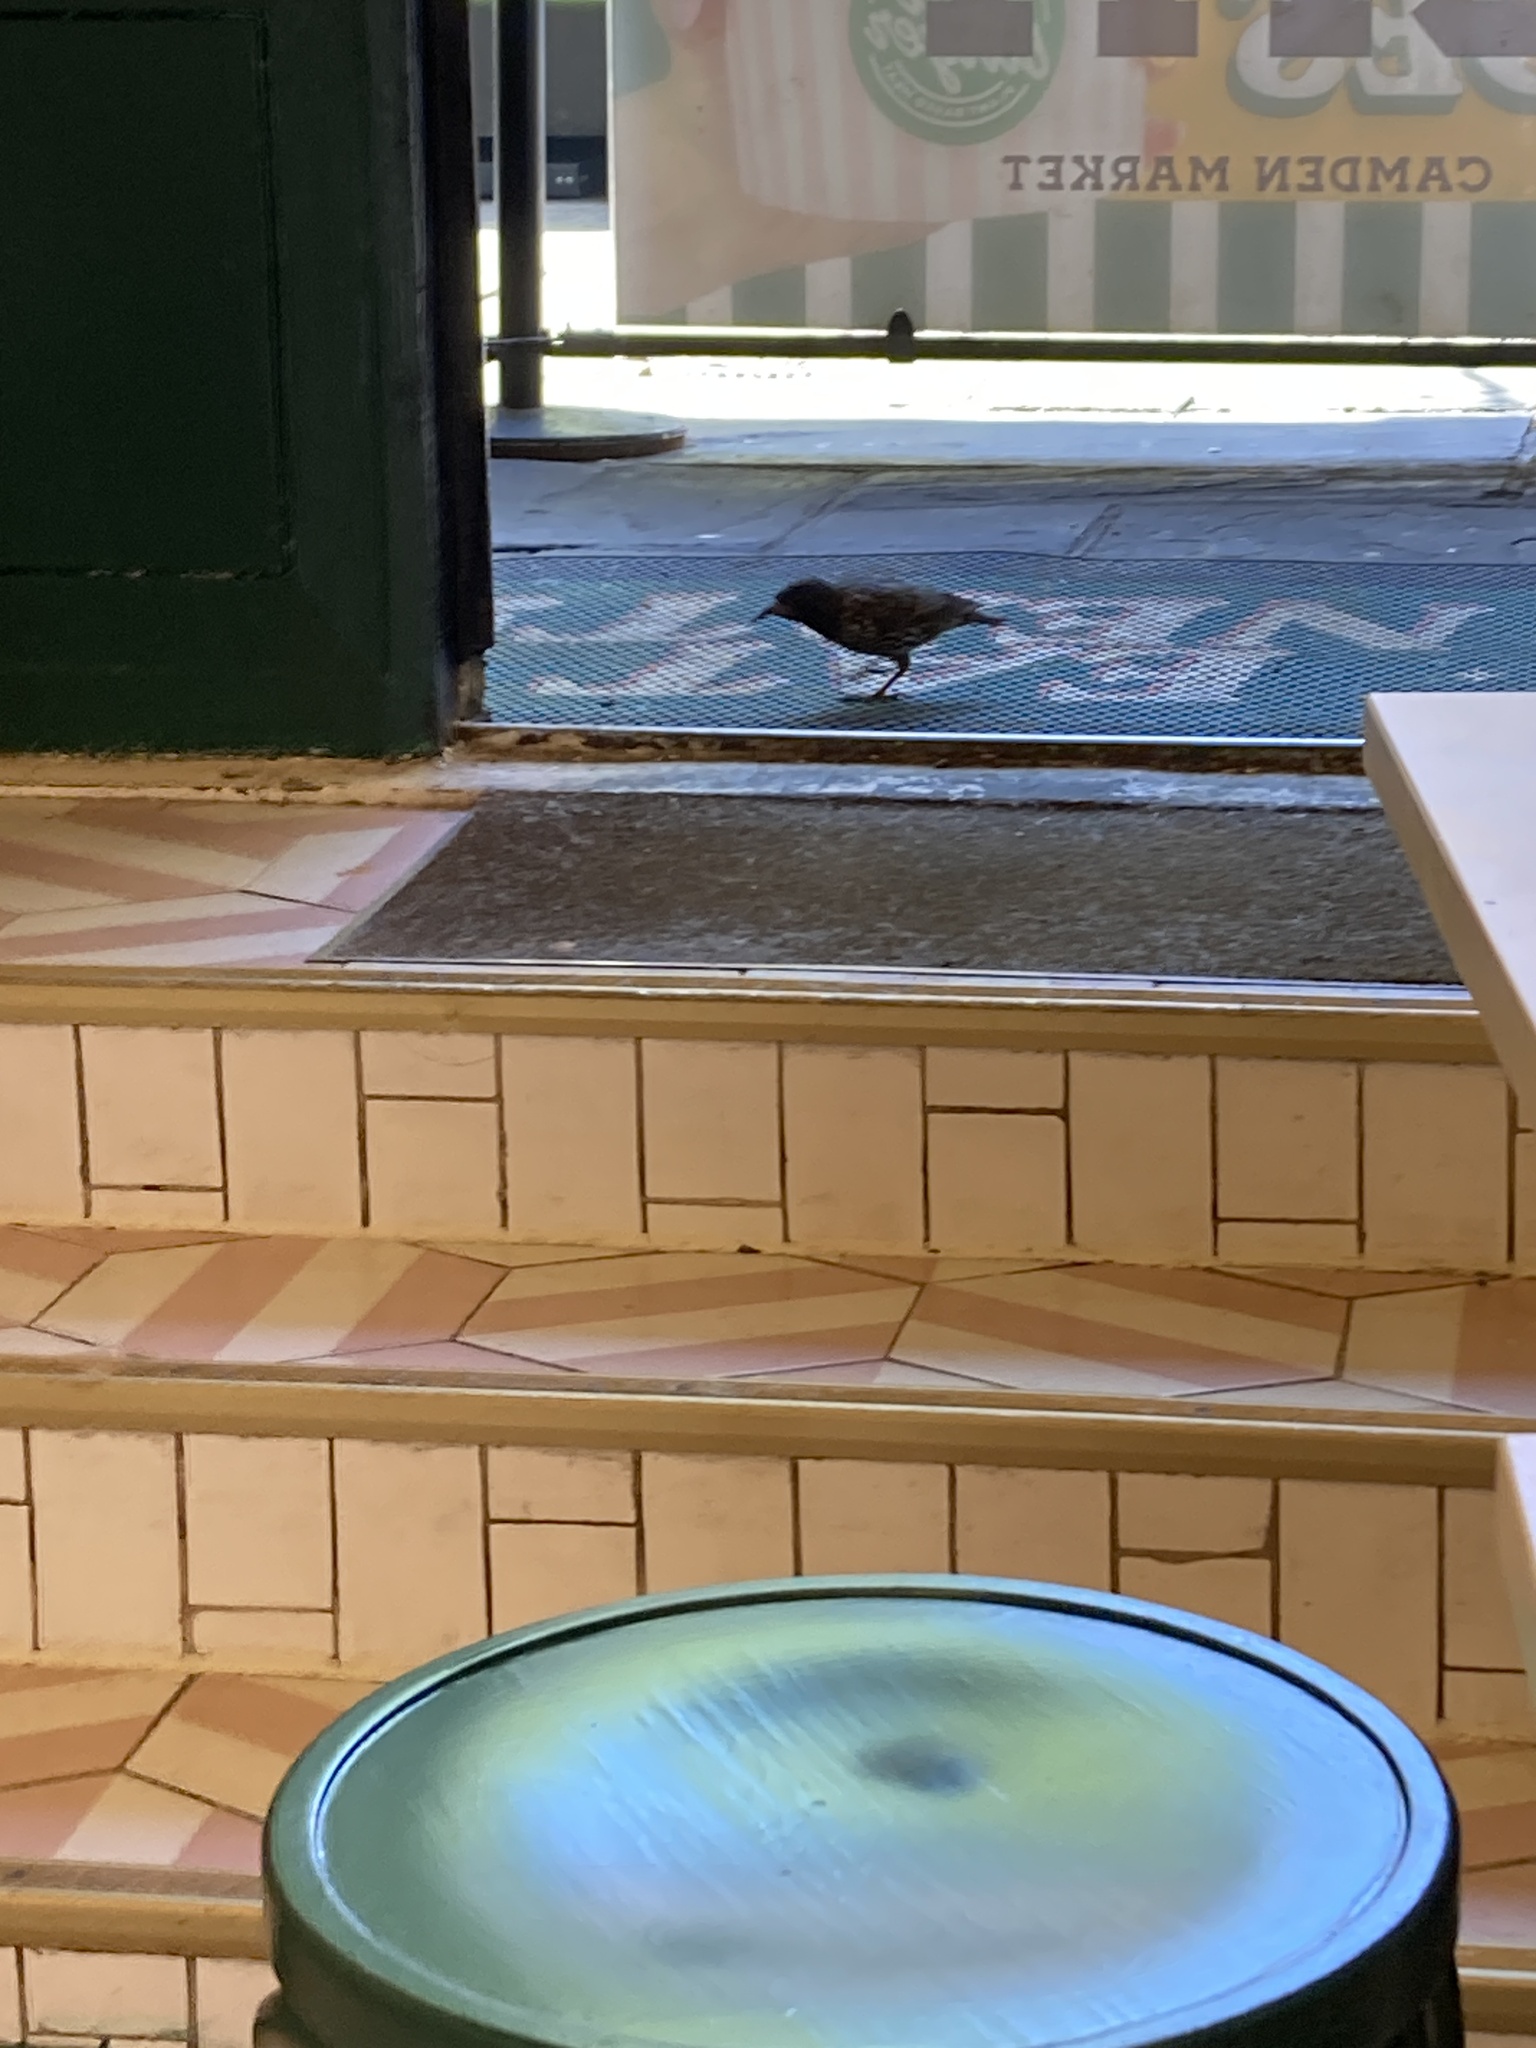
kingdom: Animalia
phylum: Chordata
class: Aves
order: Passeriformes
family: Sturnidae
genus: Sturnus
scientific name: Sturnus vulgaris
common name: Common starling
